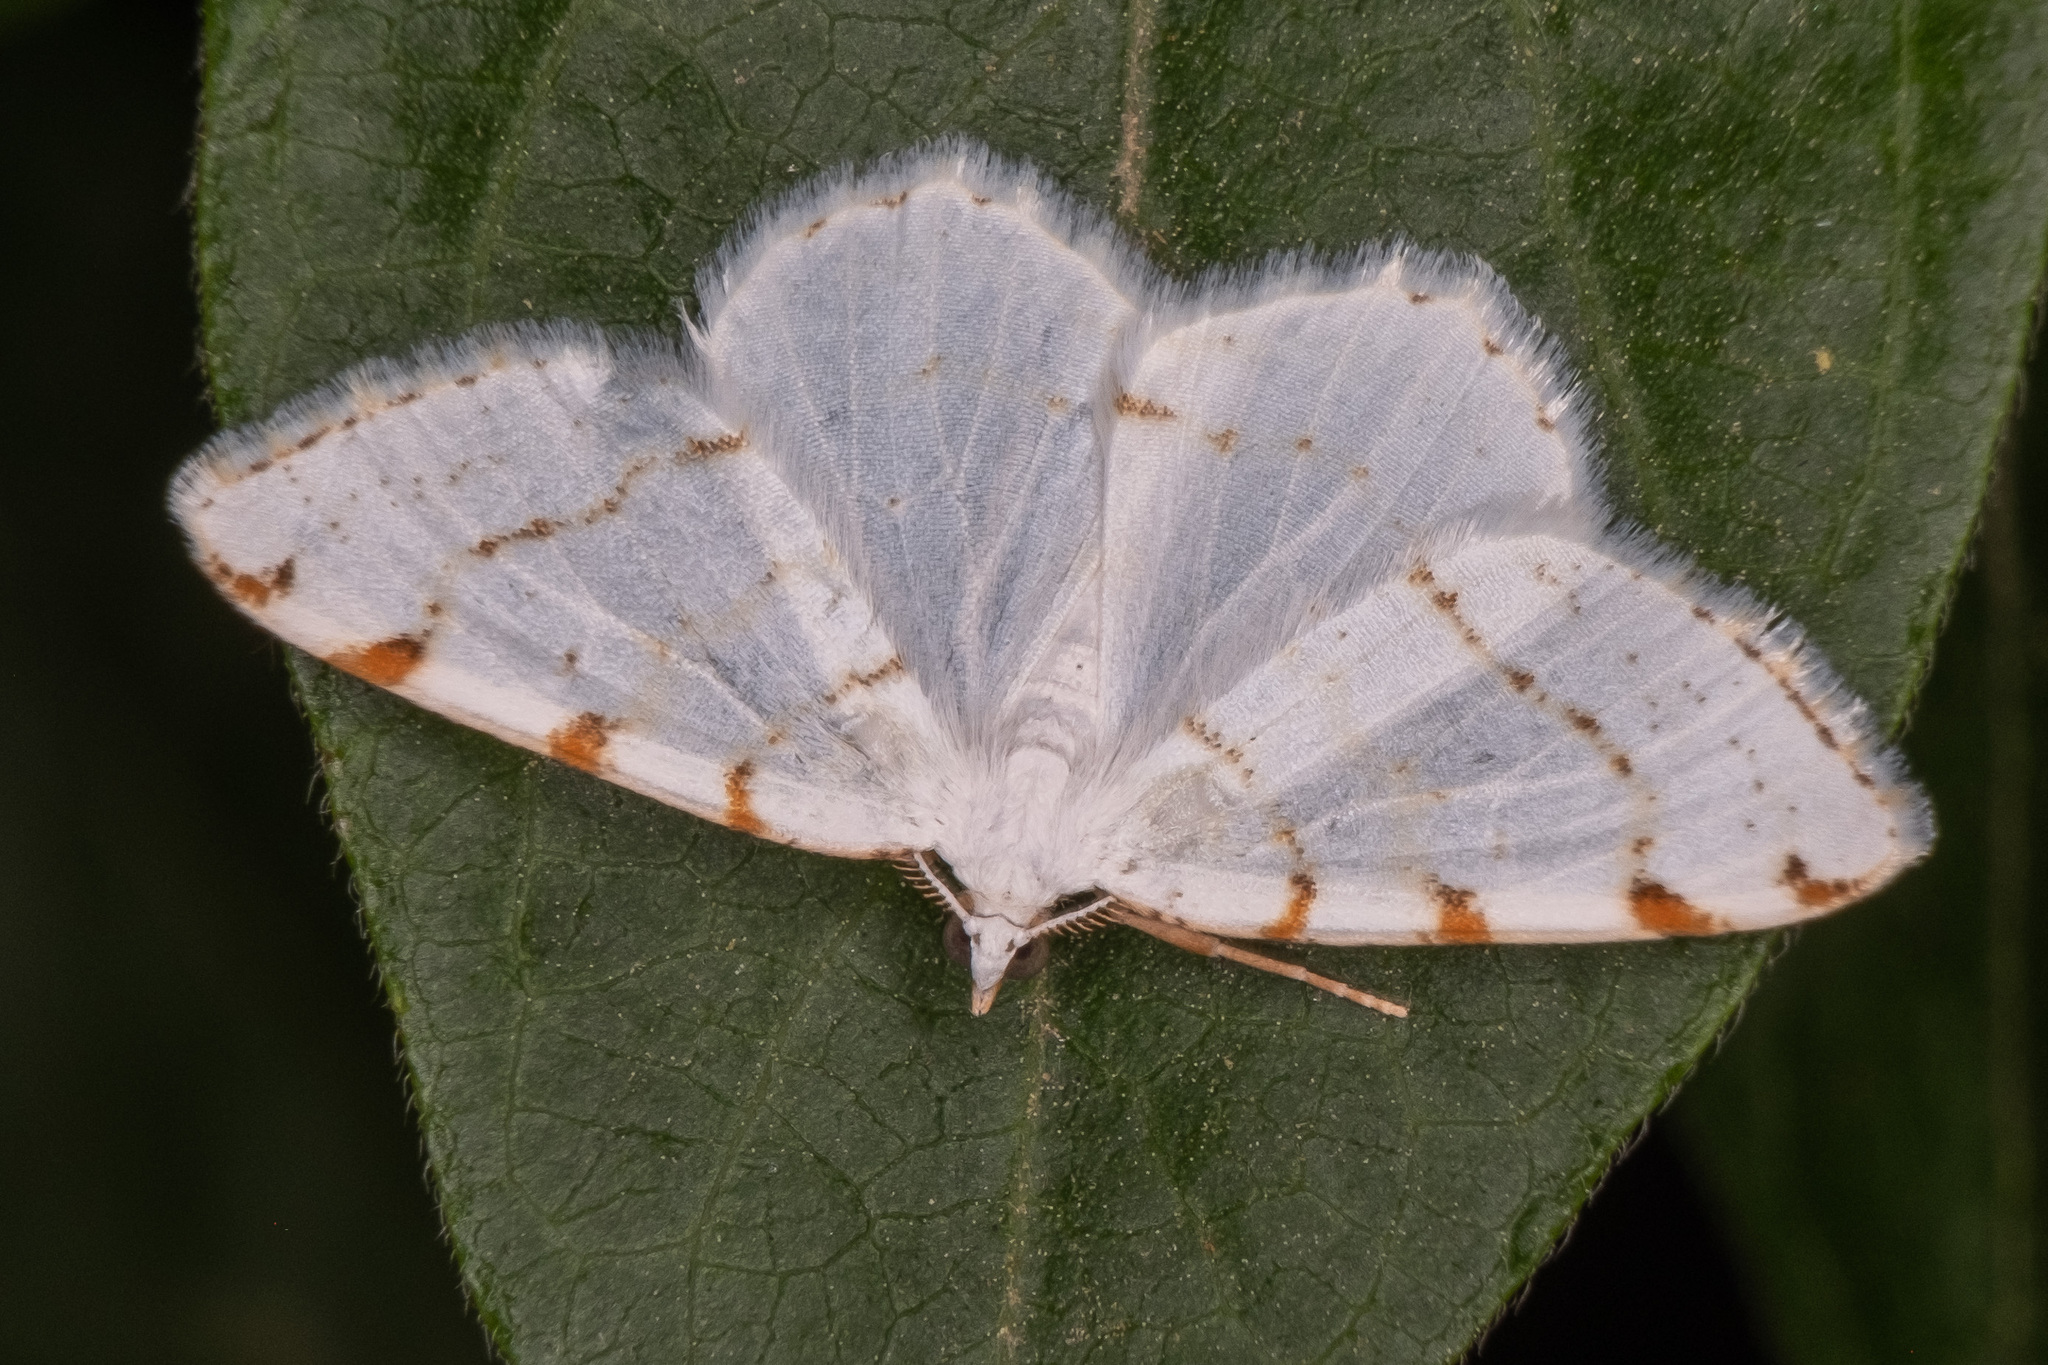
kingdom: Animalia
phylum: Arthropoda
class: Insecta
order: Lepidoptera
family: Geometridae
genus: Macaria
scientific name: Macaria pustularia
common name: Lesser maple spanworm moth
